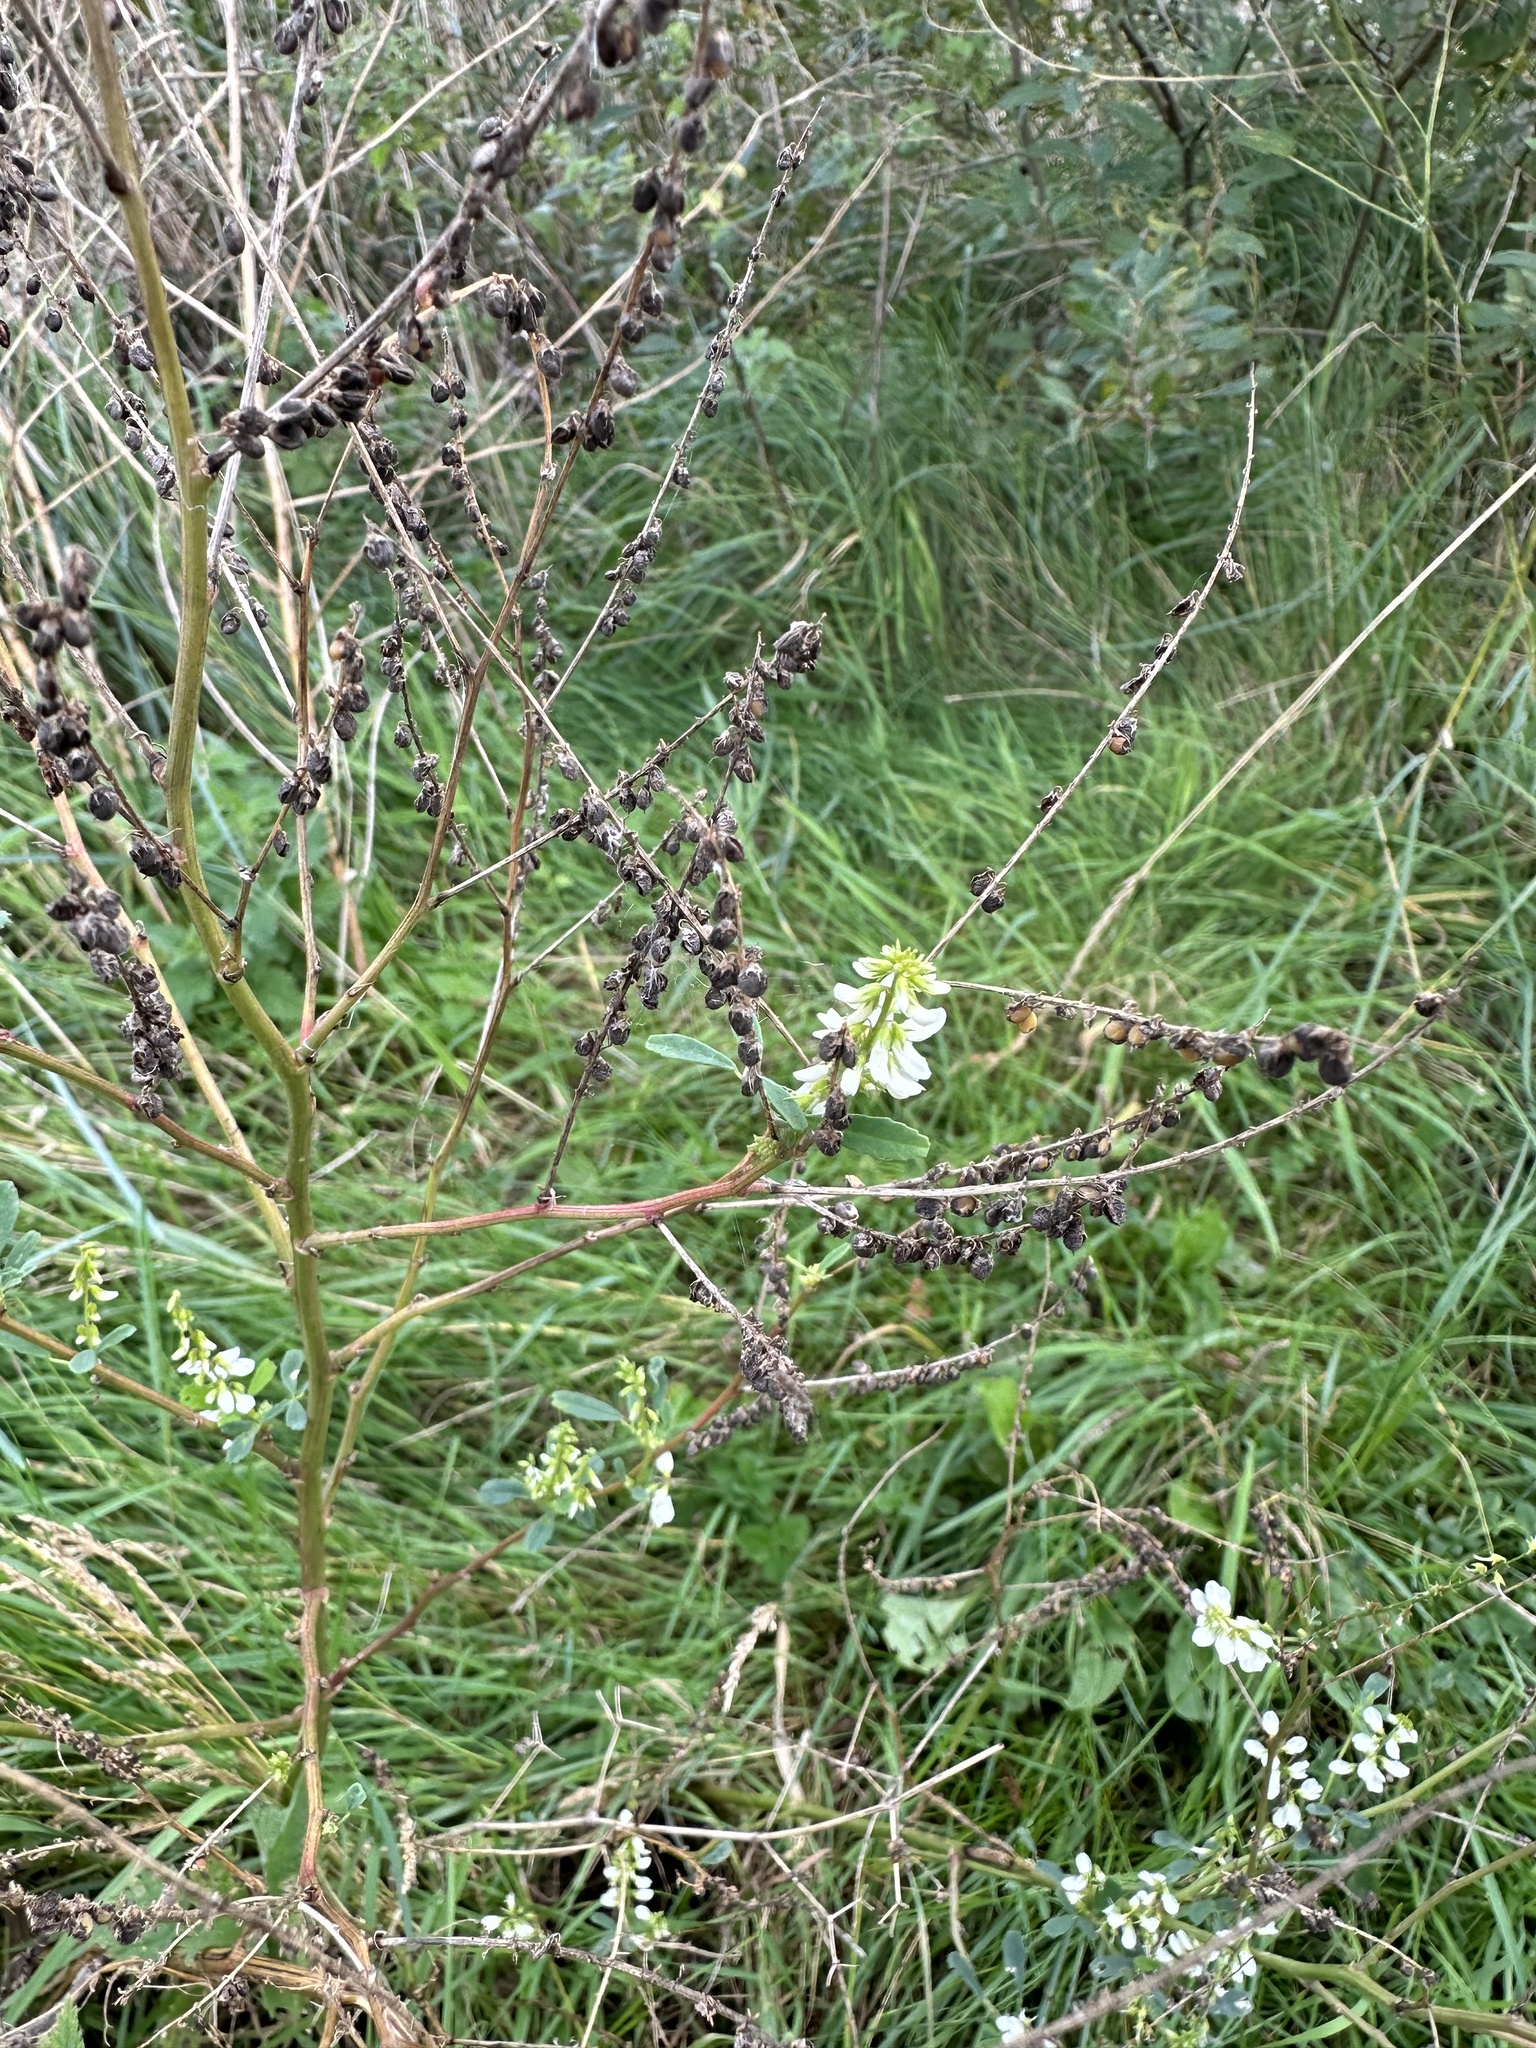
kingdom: Plantae
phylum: Tracheophyta
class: Magnoliopsida
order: Fabales
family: Fabaceae
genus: Melilotus
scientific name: Melilotus albus
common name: White melilot
